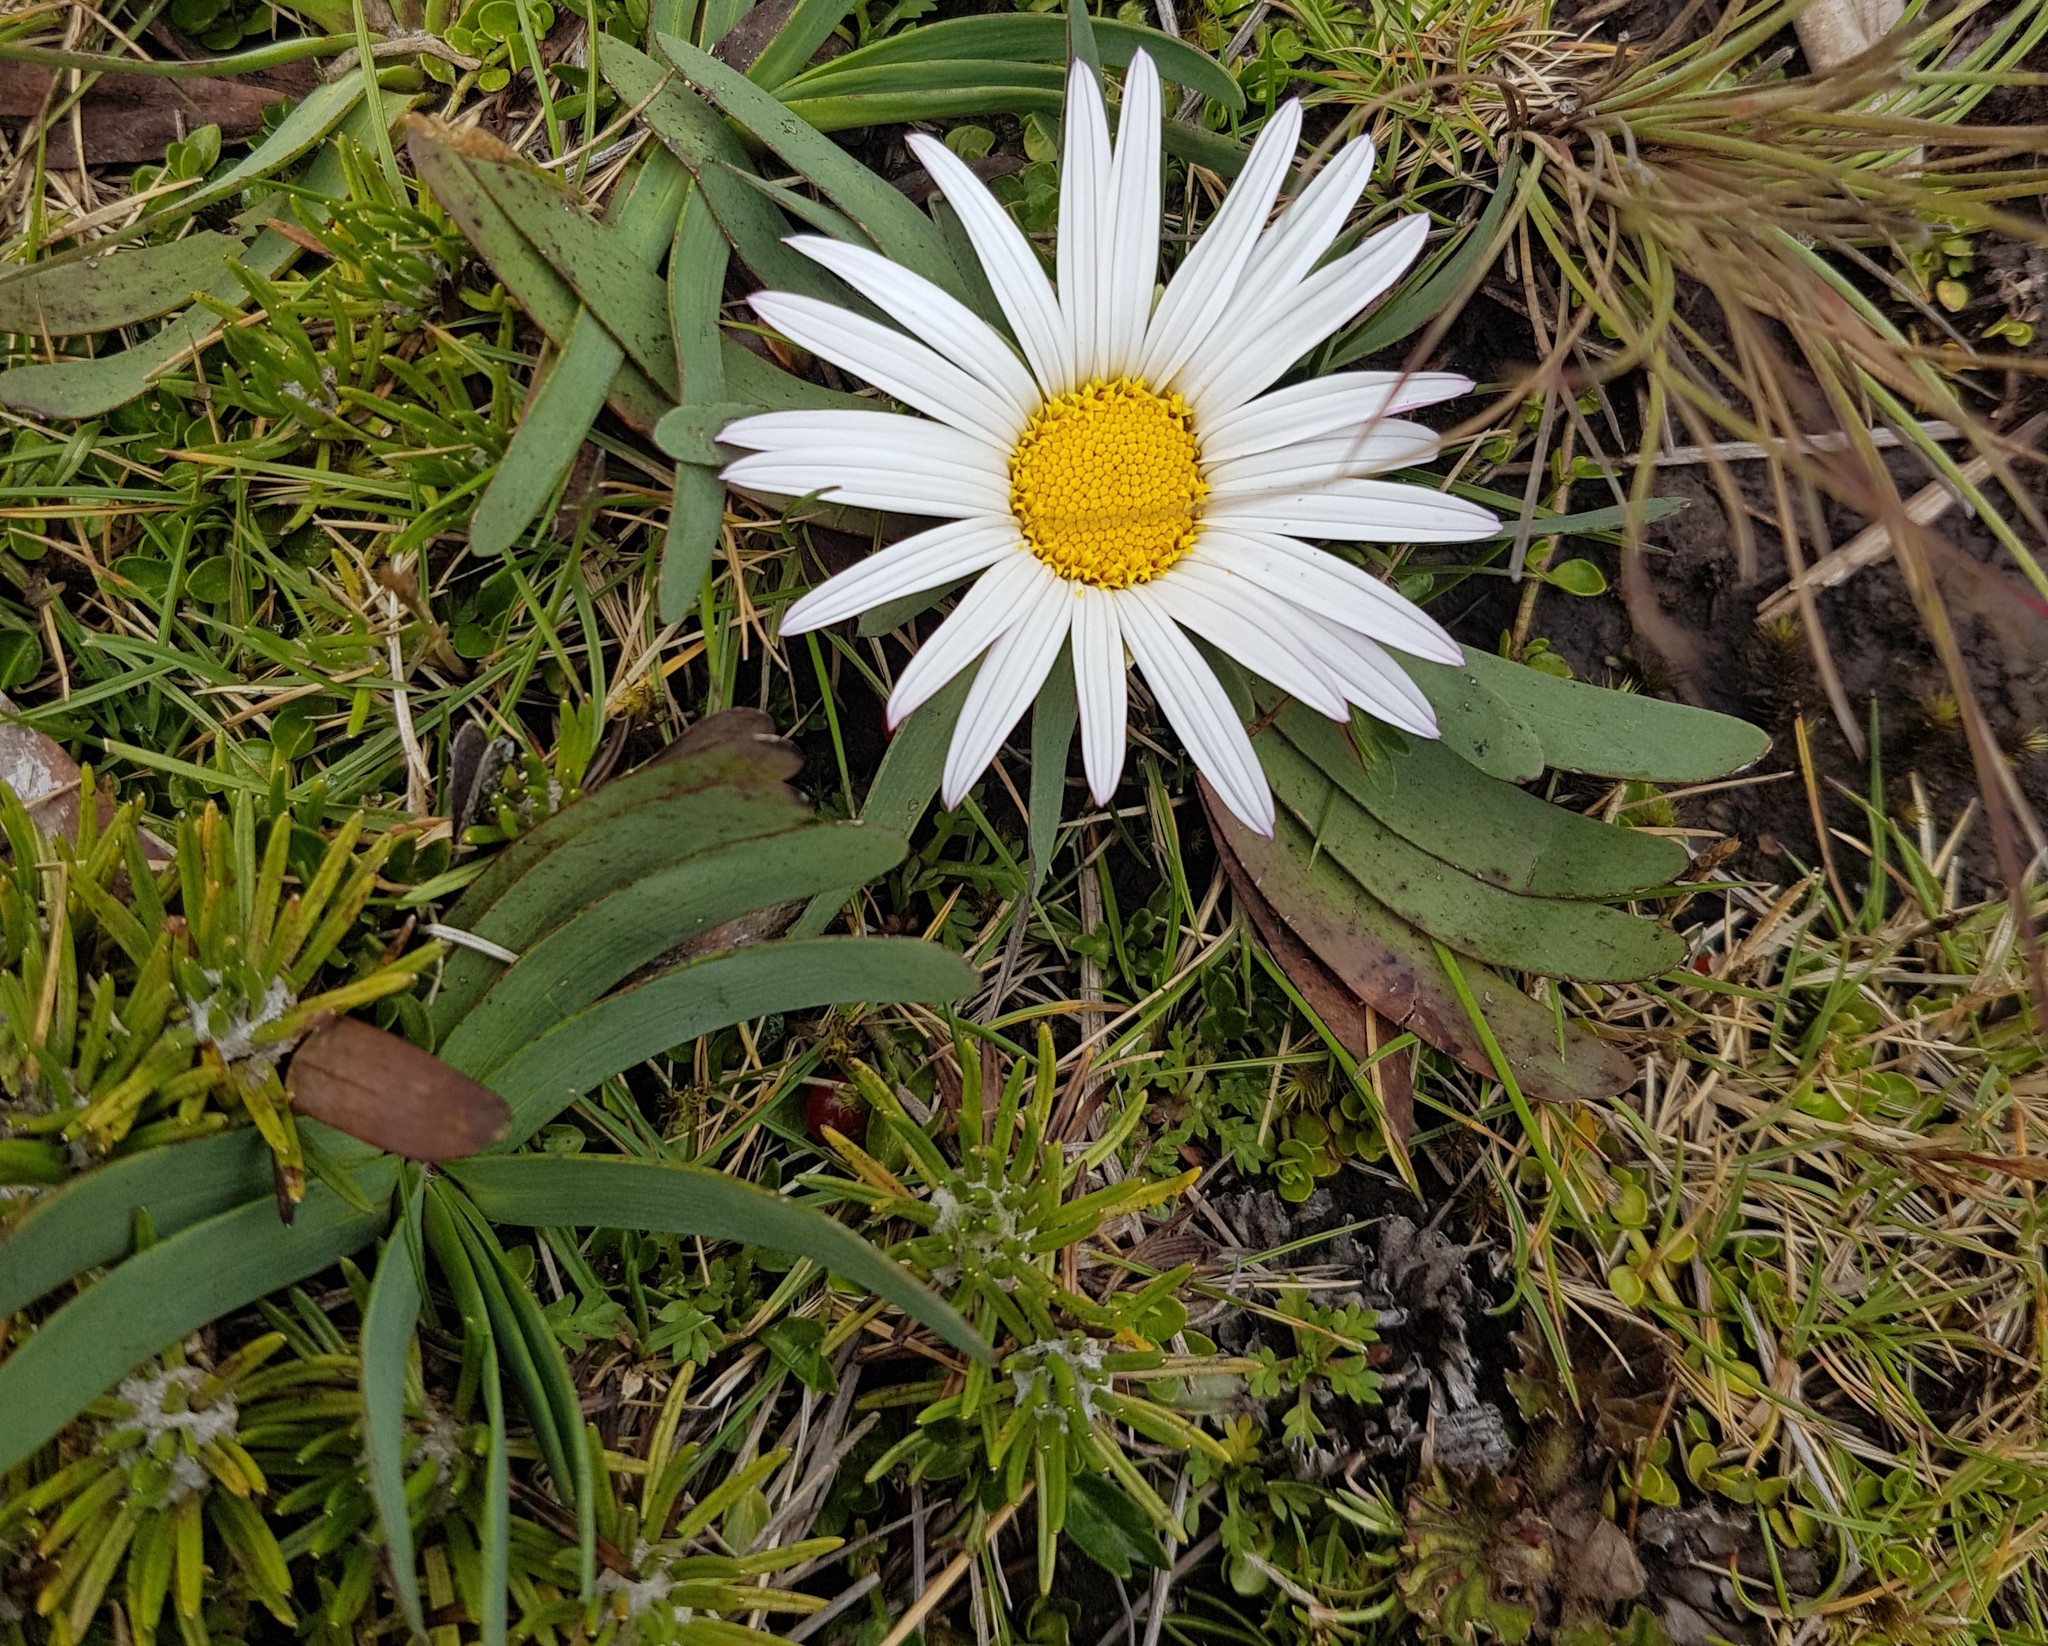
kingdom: Plantae
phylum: Tracheophyta
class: Magnoliopsida
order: Asterales
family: Asteraceae
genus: Rockhausenia
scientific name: Rockhausenia nubigena
